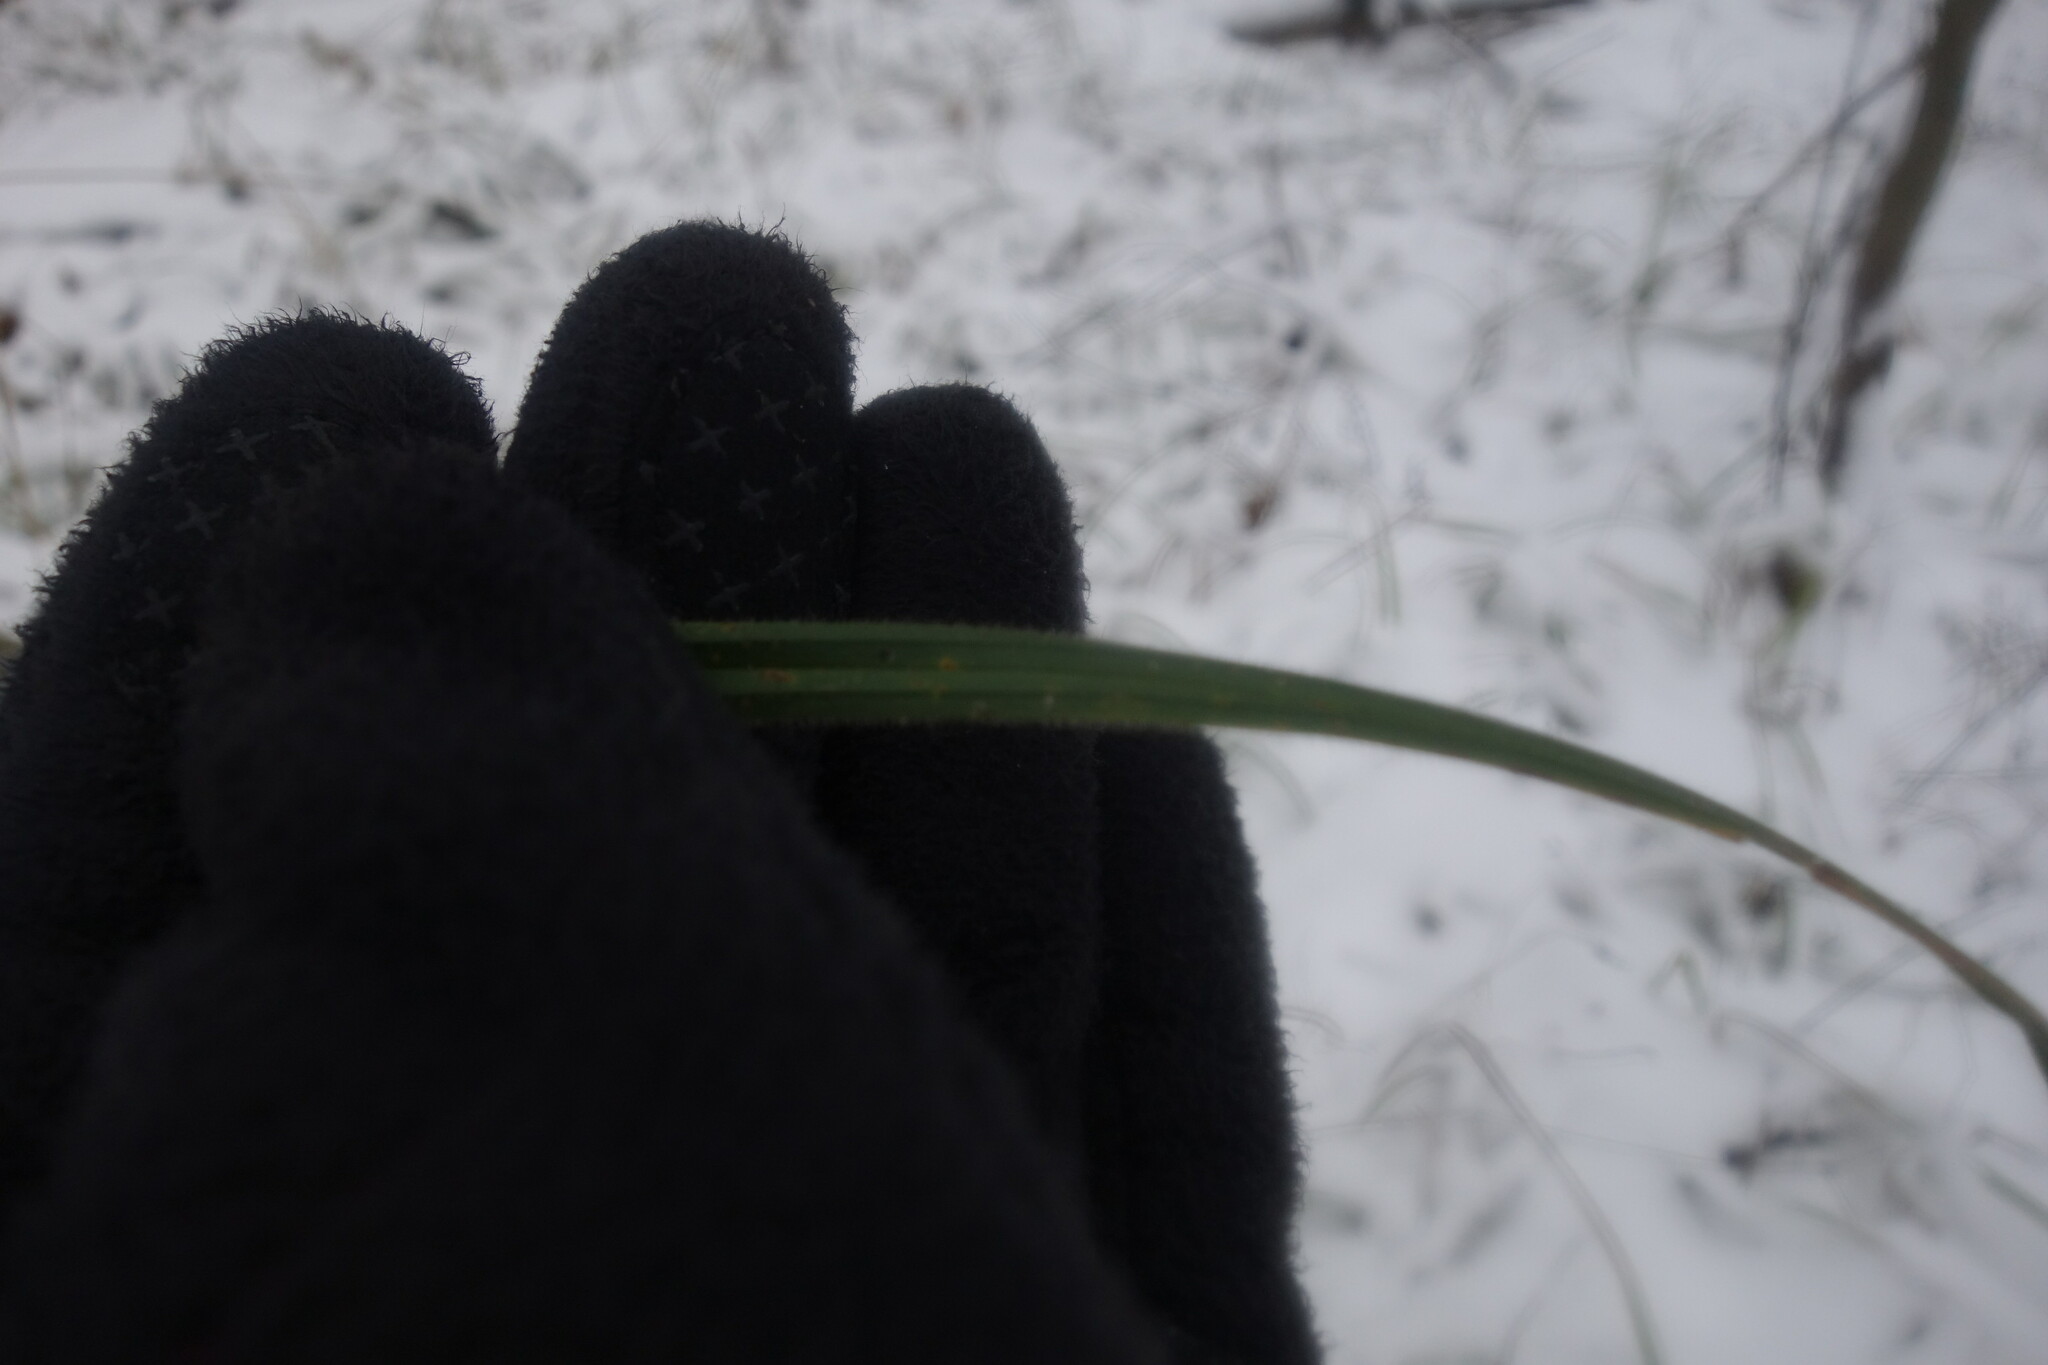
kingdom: Plantae
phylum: Tracheophyta
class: Liliopsida
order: Poales
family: Cyperaceae
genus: Carex
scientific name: Carex pilosa
